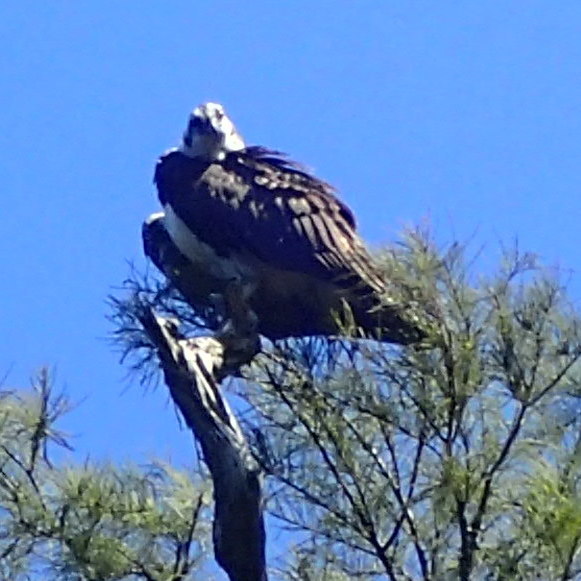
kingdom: Animalia
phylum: Chordata
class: Aves
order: Accipitriformes
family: Pandionidae
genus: Pandion
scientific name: Pandion haliaetus
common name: Osprey
